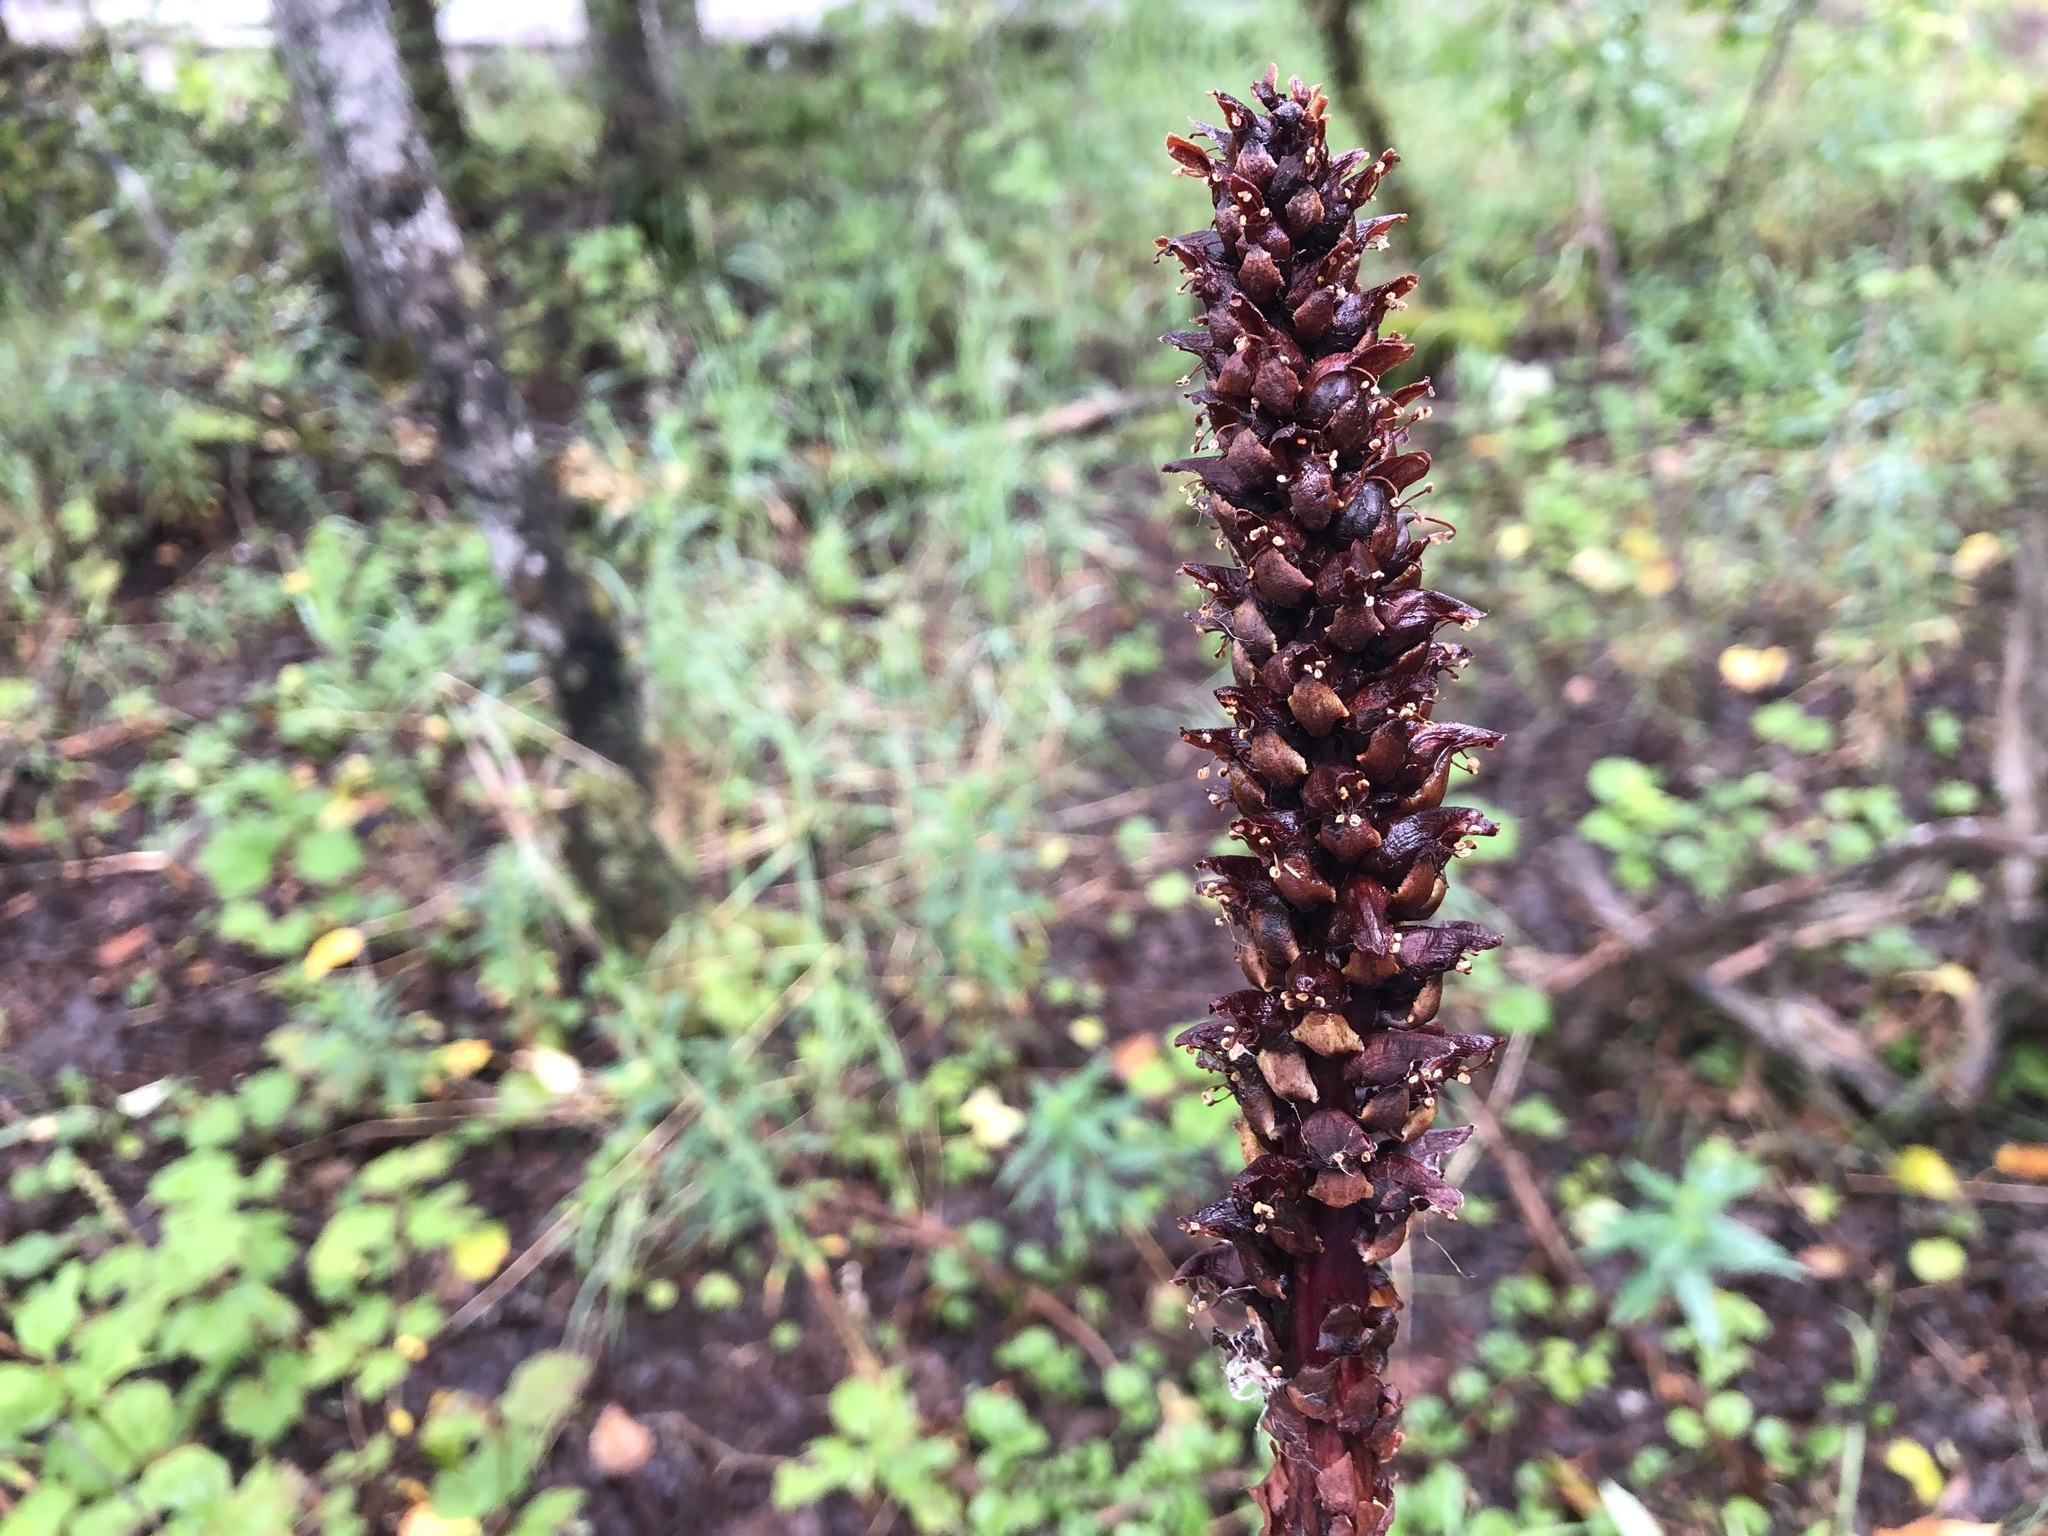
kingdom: Plantae
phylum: Tracheophyta
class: Magnoliopsida
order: Lamiales
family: Orobanchaceae
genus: Boschniakia
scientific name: Boschniakia rossica
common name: Poque
